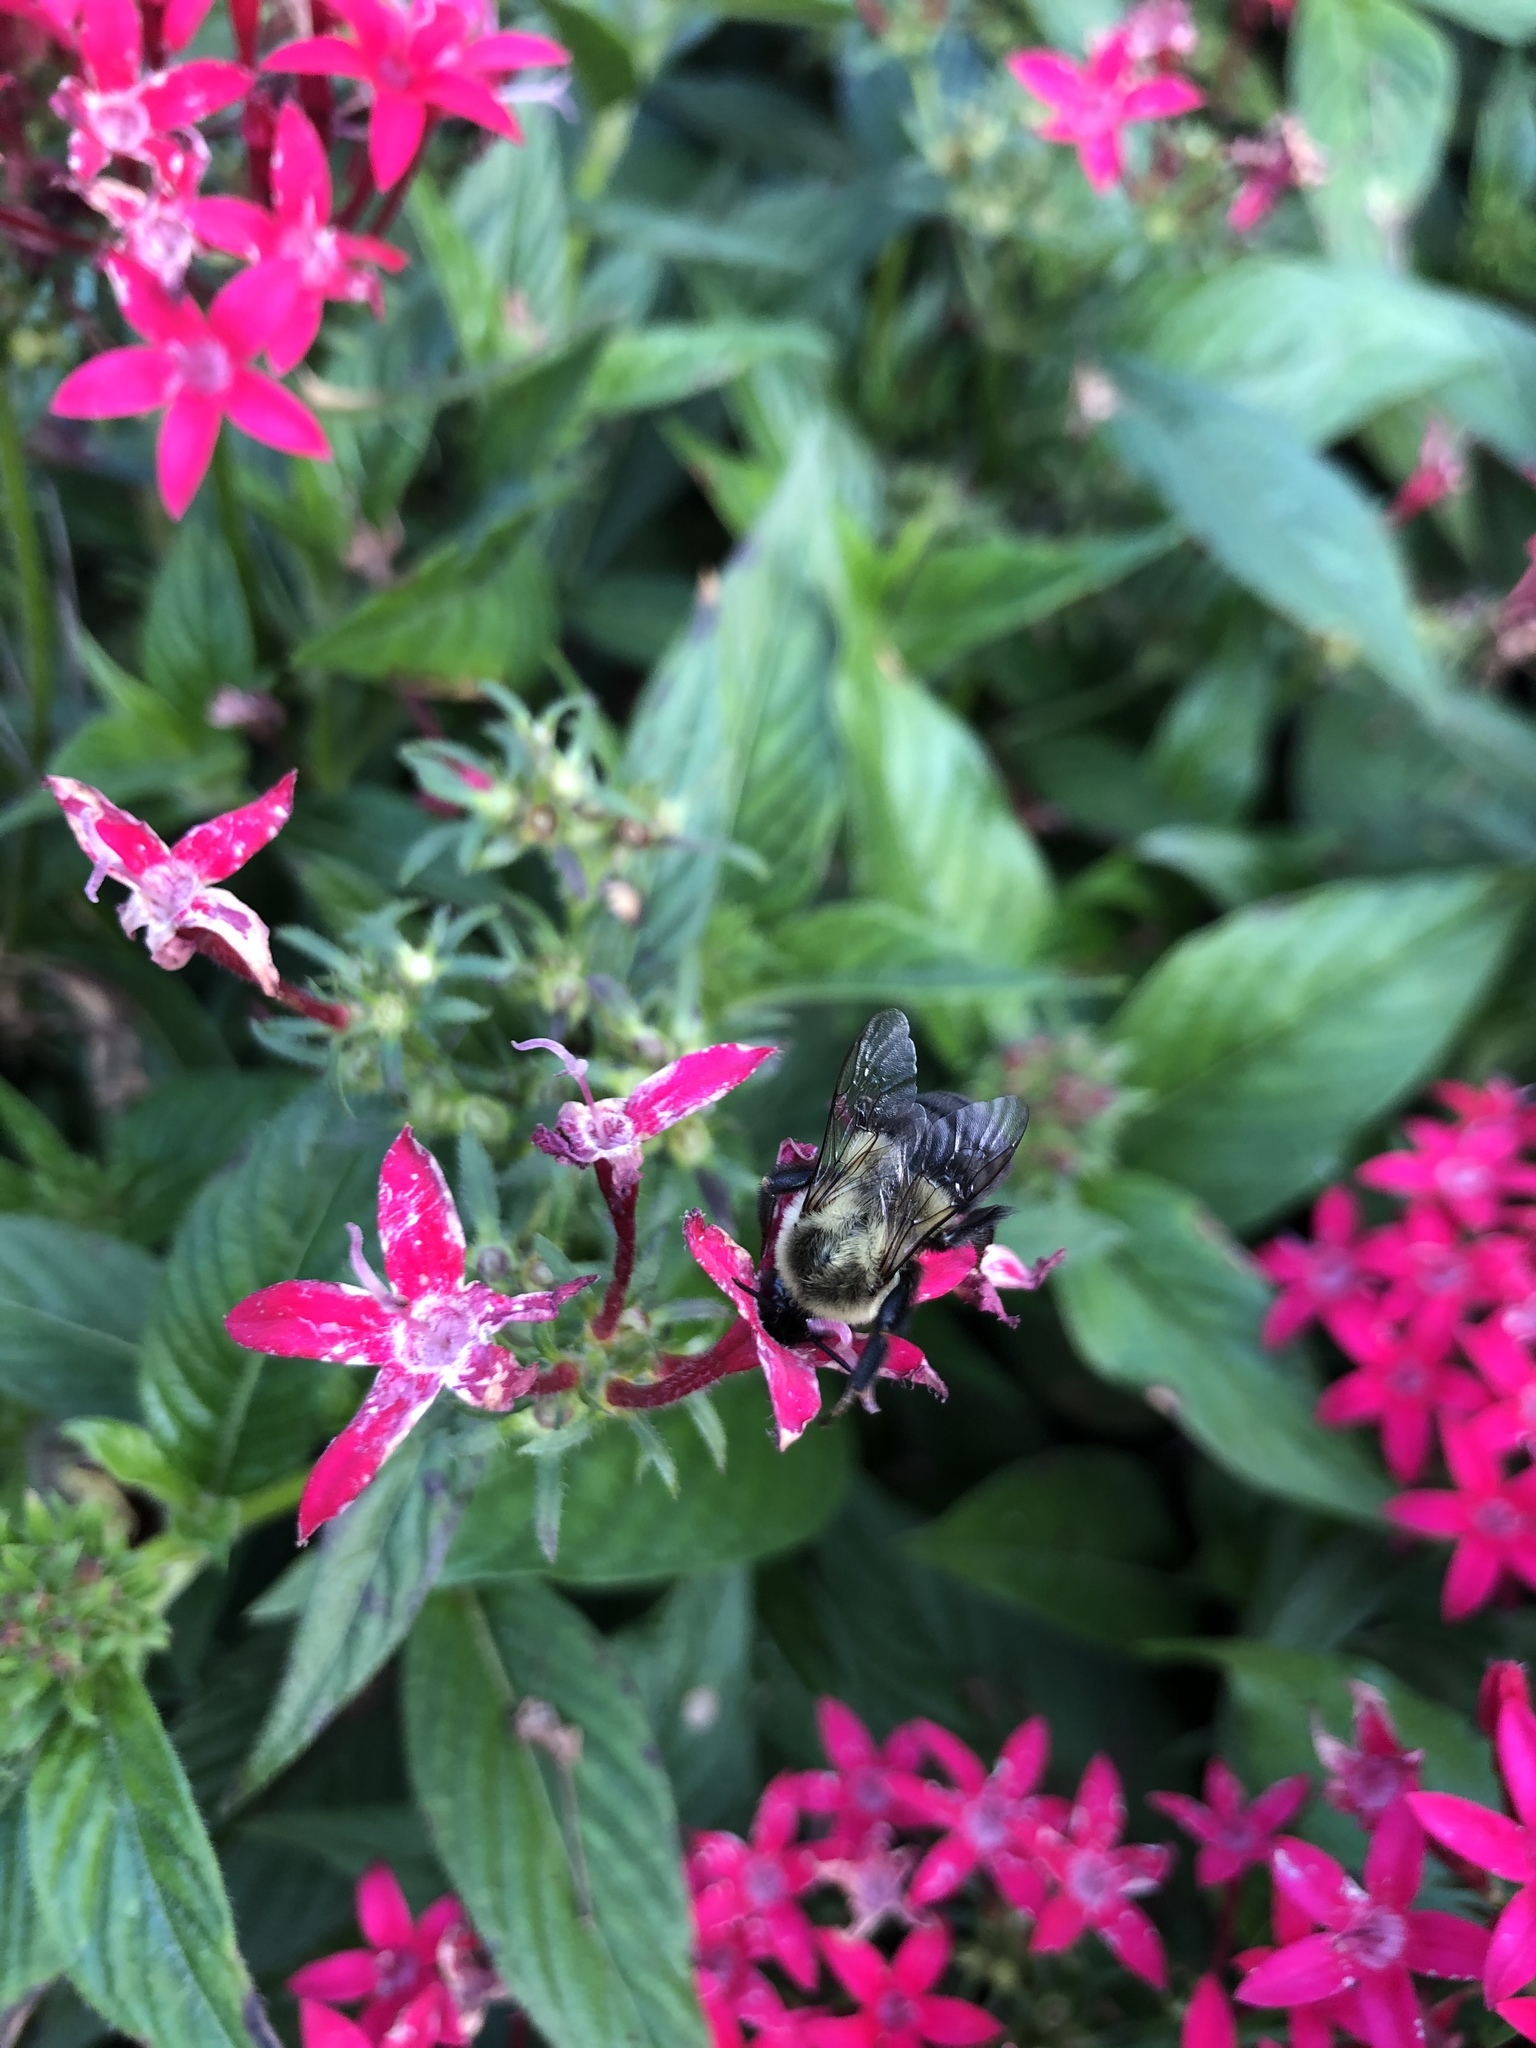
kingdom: Animalia
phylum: Arthropoda
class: Insecta
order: Hymenoptera
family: Apidae
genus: Bombus
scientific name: Bombus impatiens
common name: Common eastern bumble bee
